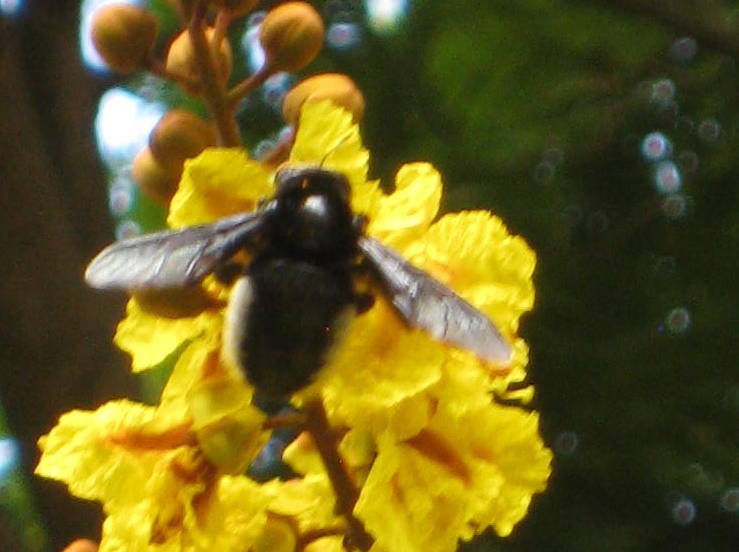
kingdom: Animalia
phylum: Arthropoda
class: Insecta
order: Hymenoptera
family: Apidae
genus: Xylocopa
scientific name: Xylocopa nigrita
